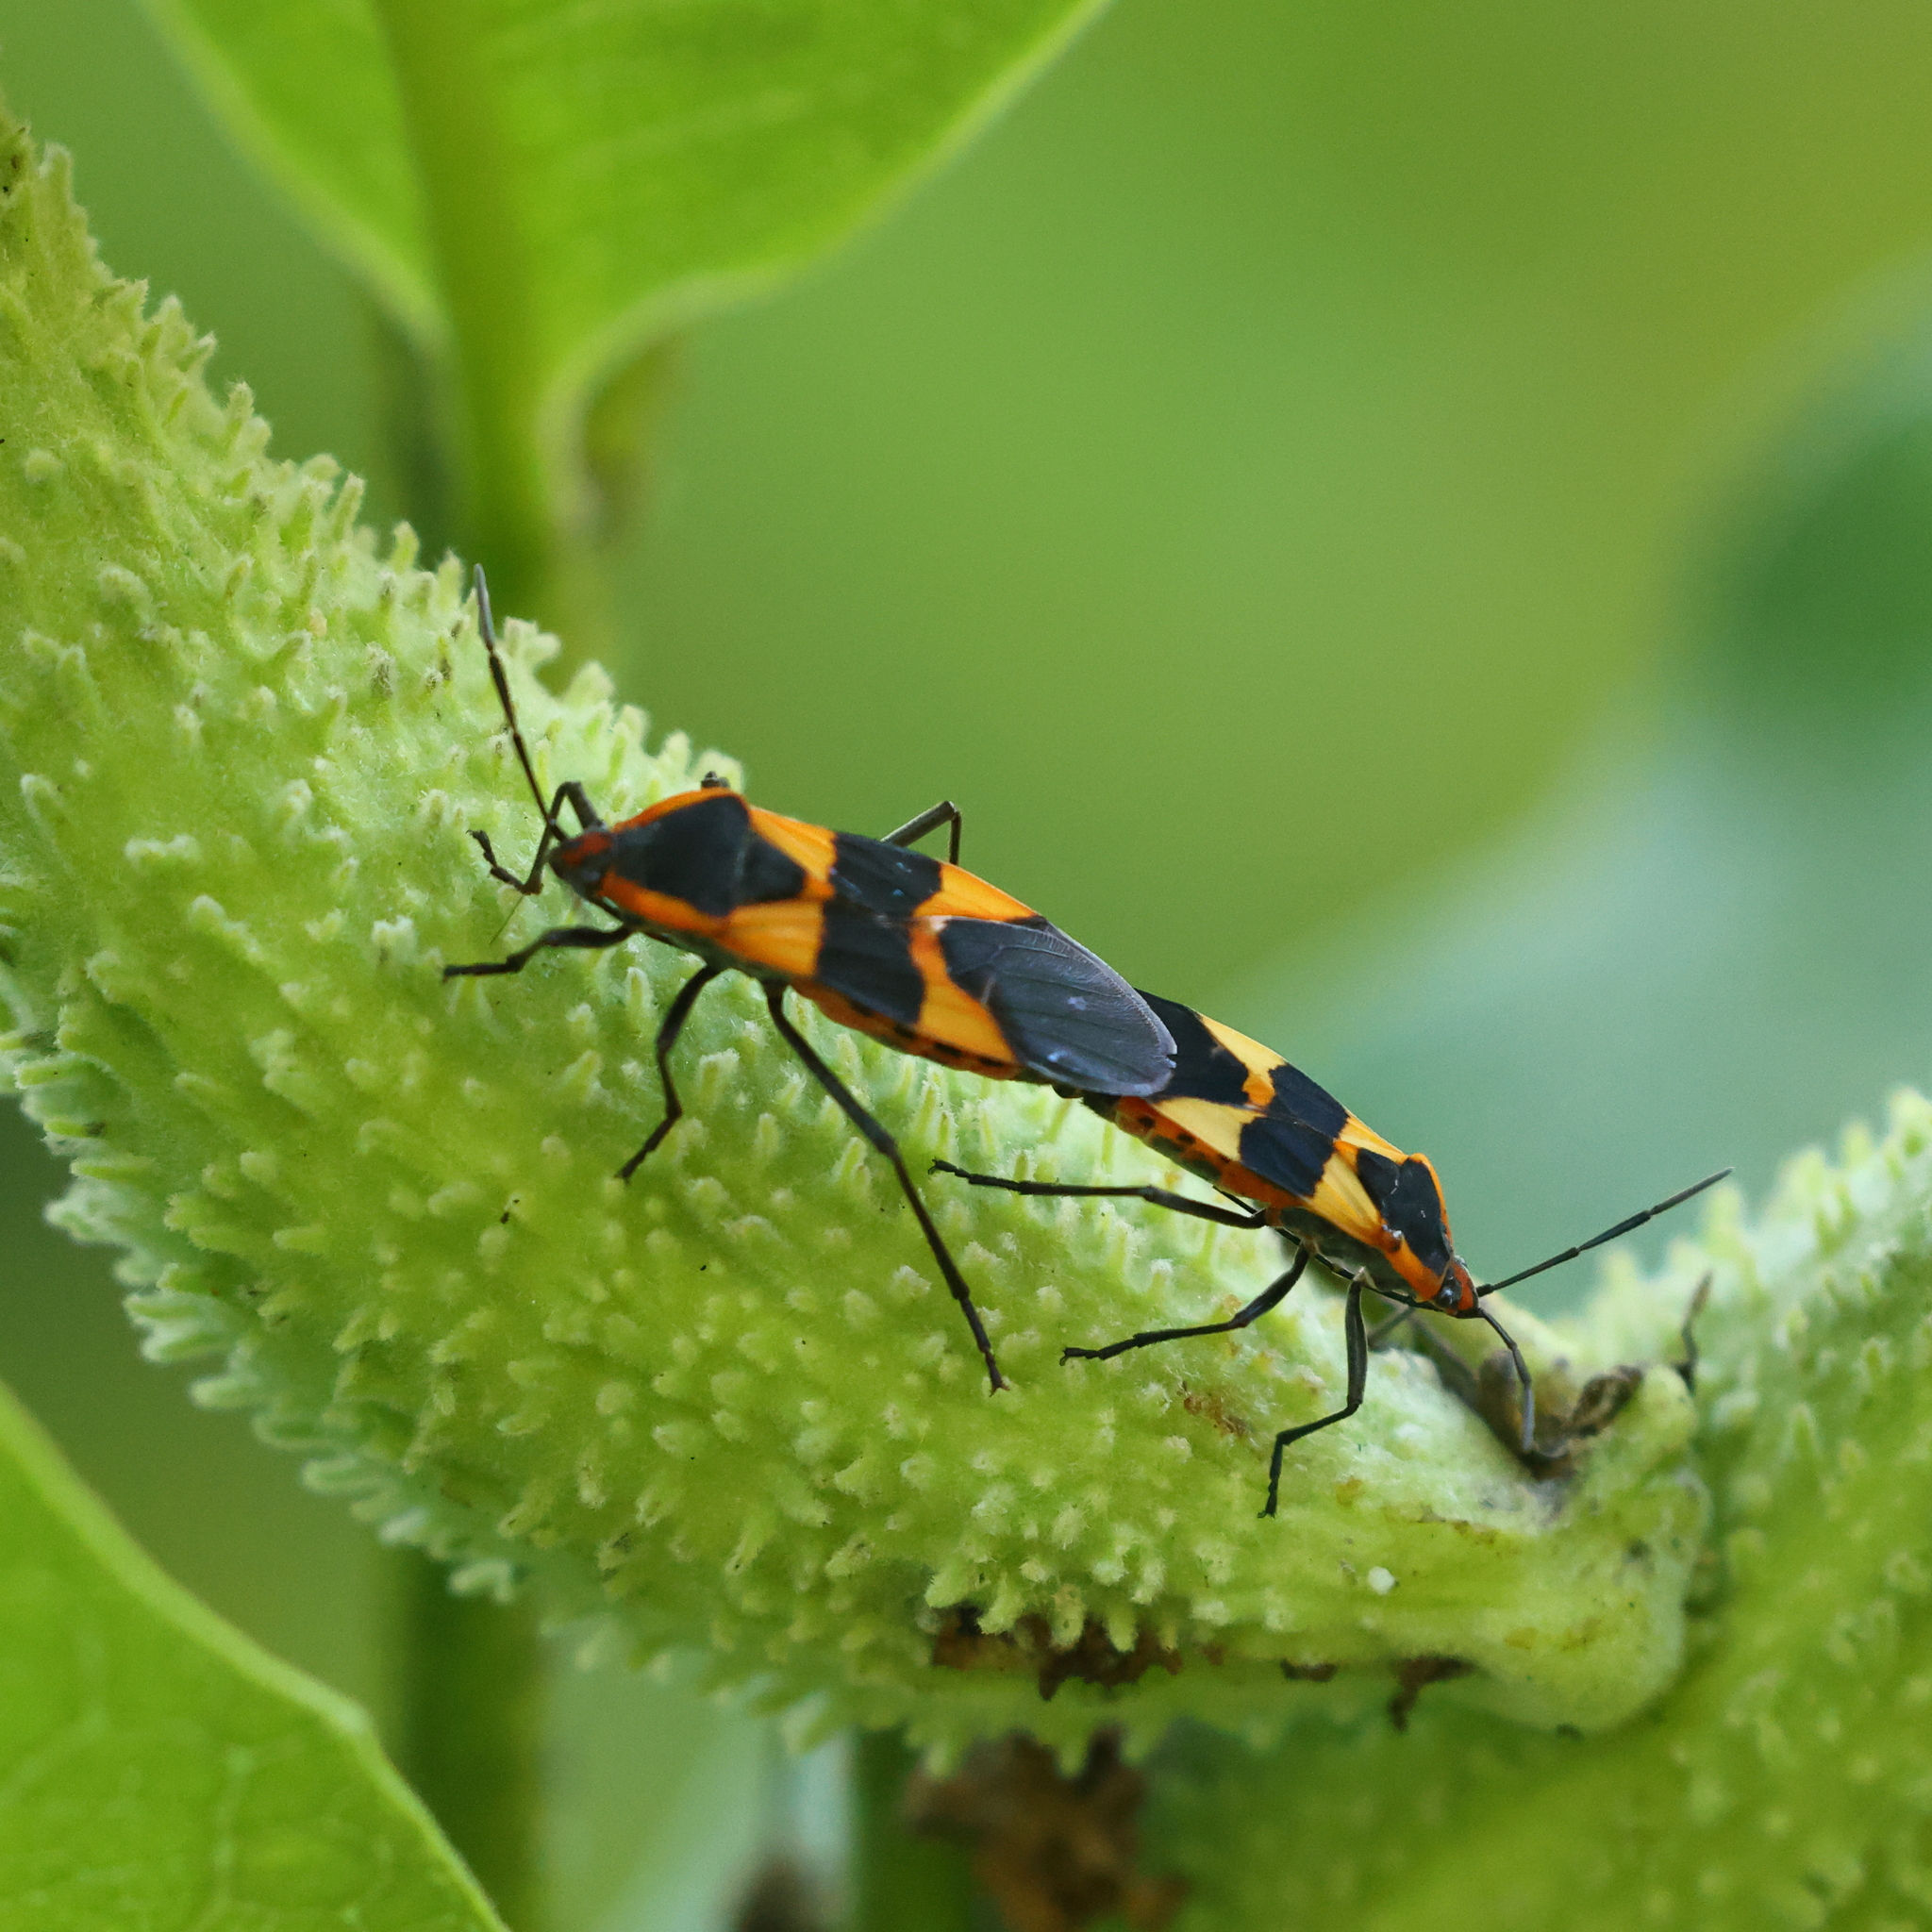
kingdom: Animalia
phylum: Arthropoda
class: Insecta
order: Hemiptera
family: Lygaeidae
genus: Oncopeltus
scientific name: Oncopeltus fasciatus
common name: Large milkweed bug
